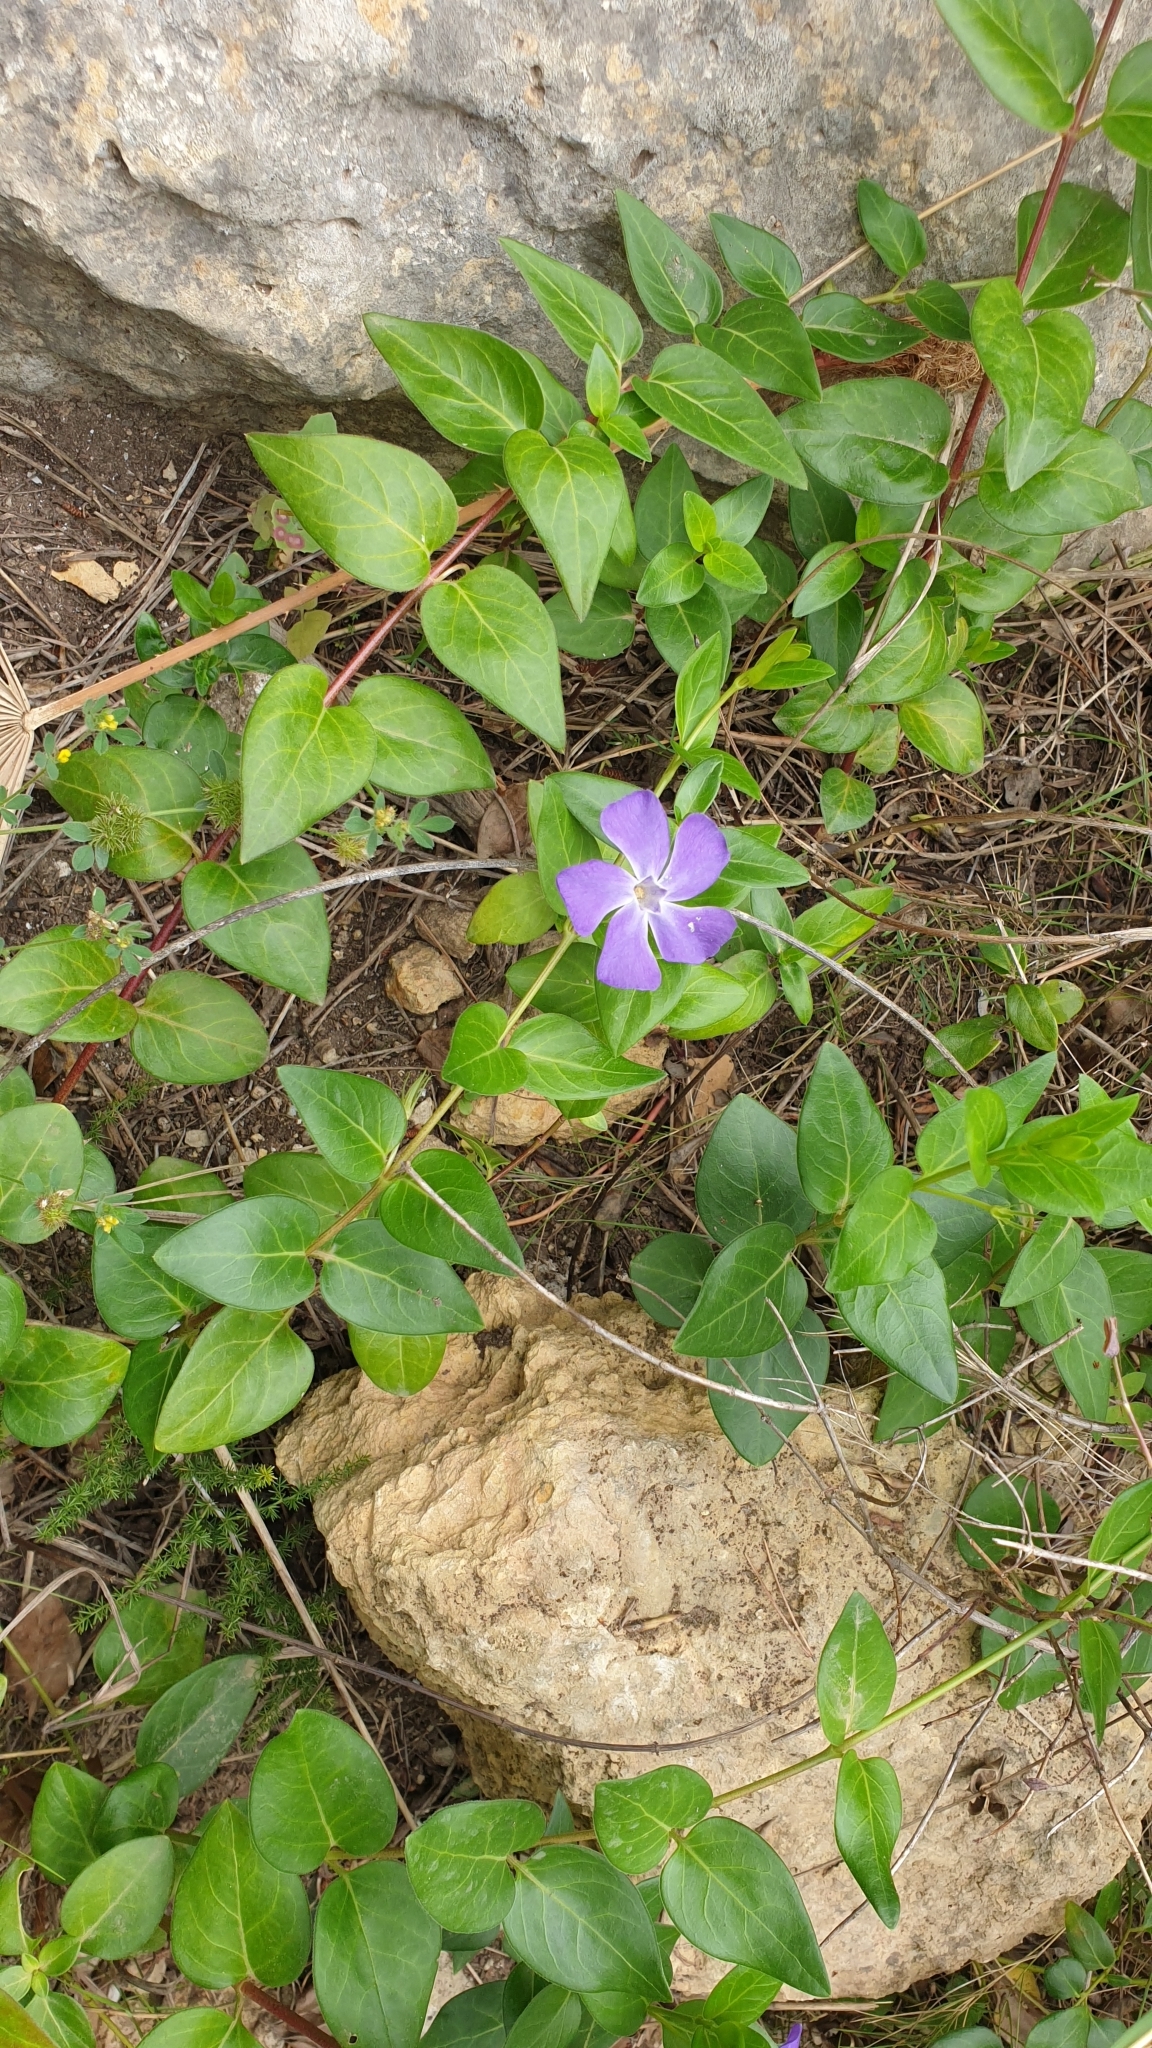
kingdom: Plantae
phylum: Tracheophyta
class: Magnoliopsida
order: Gentianales
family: Apocynaceae
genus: Vinca
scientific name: Vinca major
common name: Greater periwinkle
